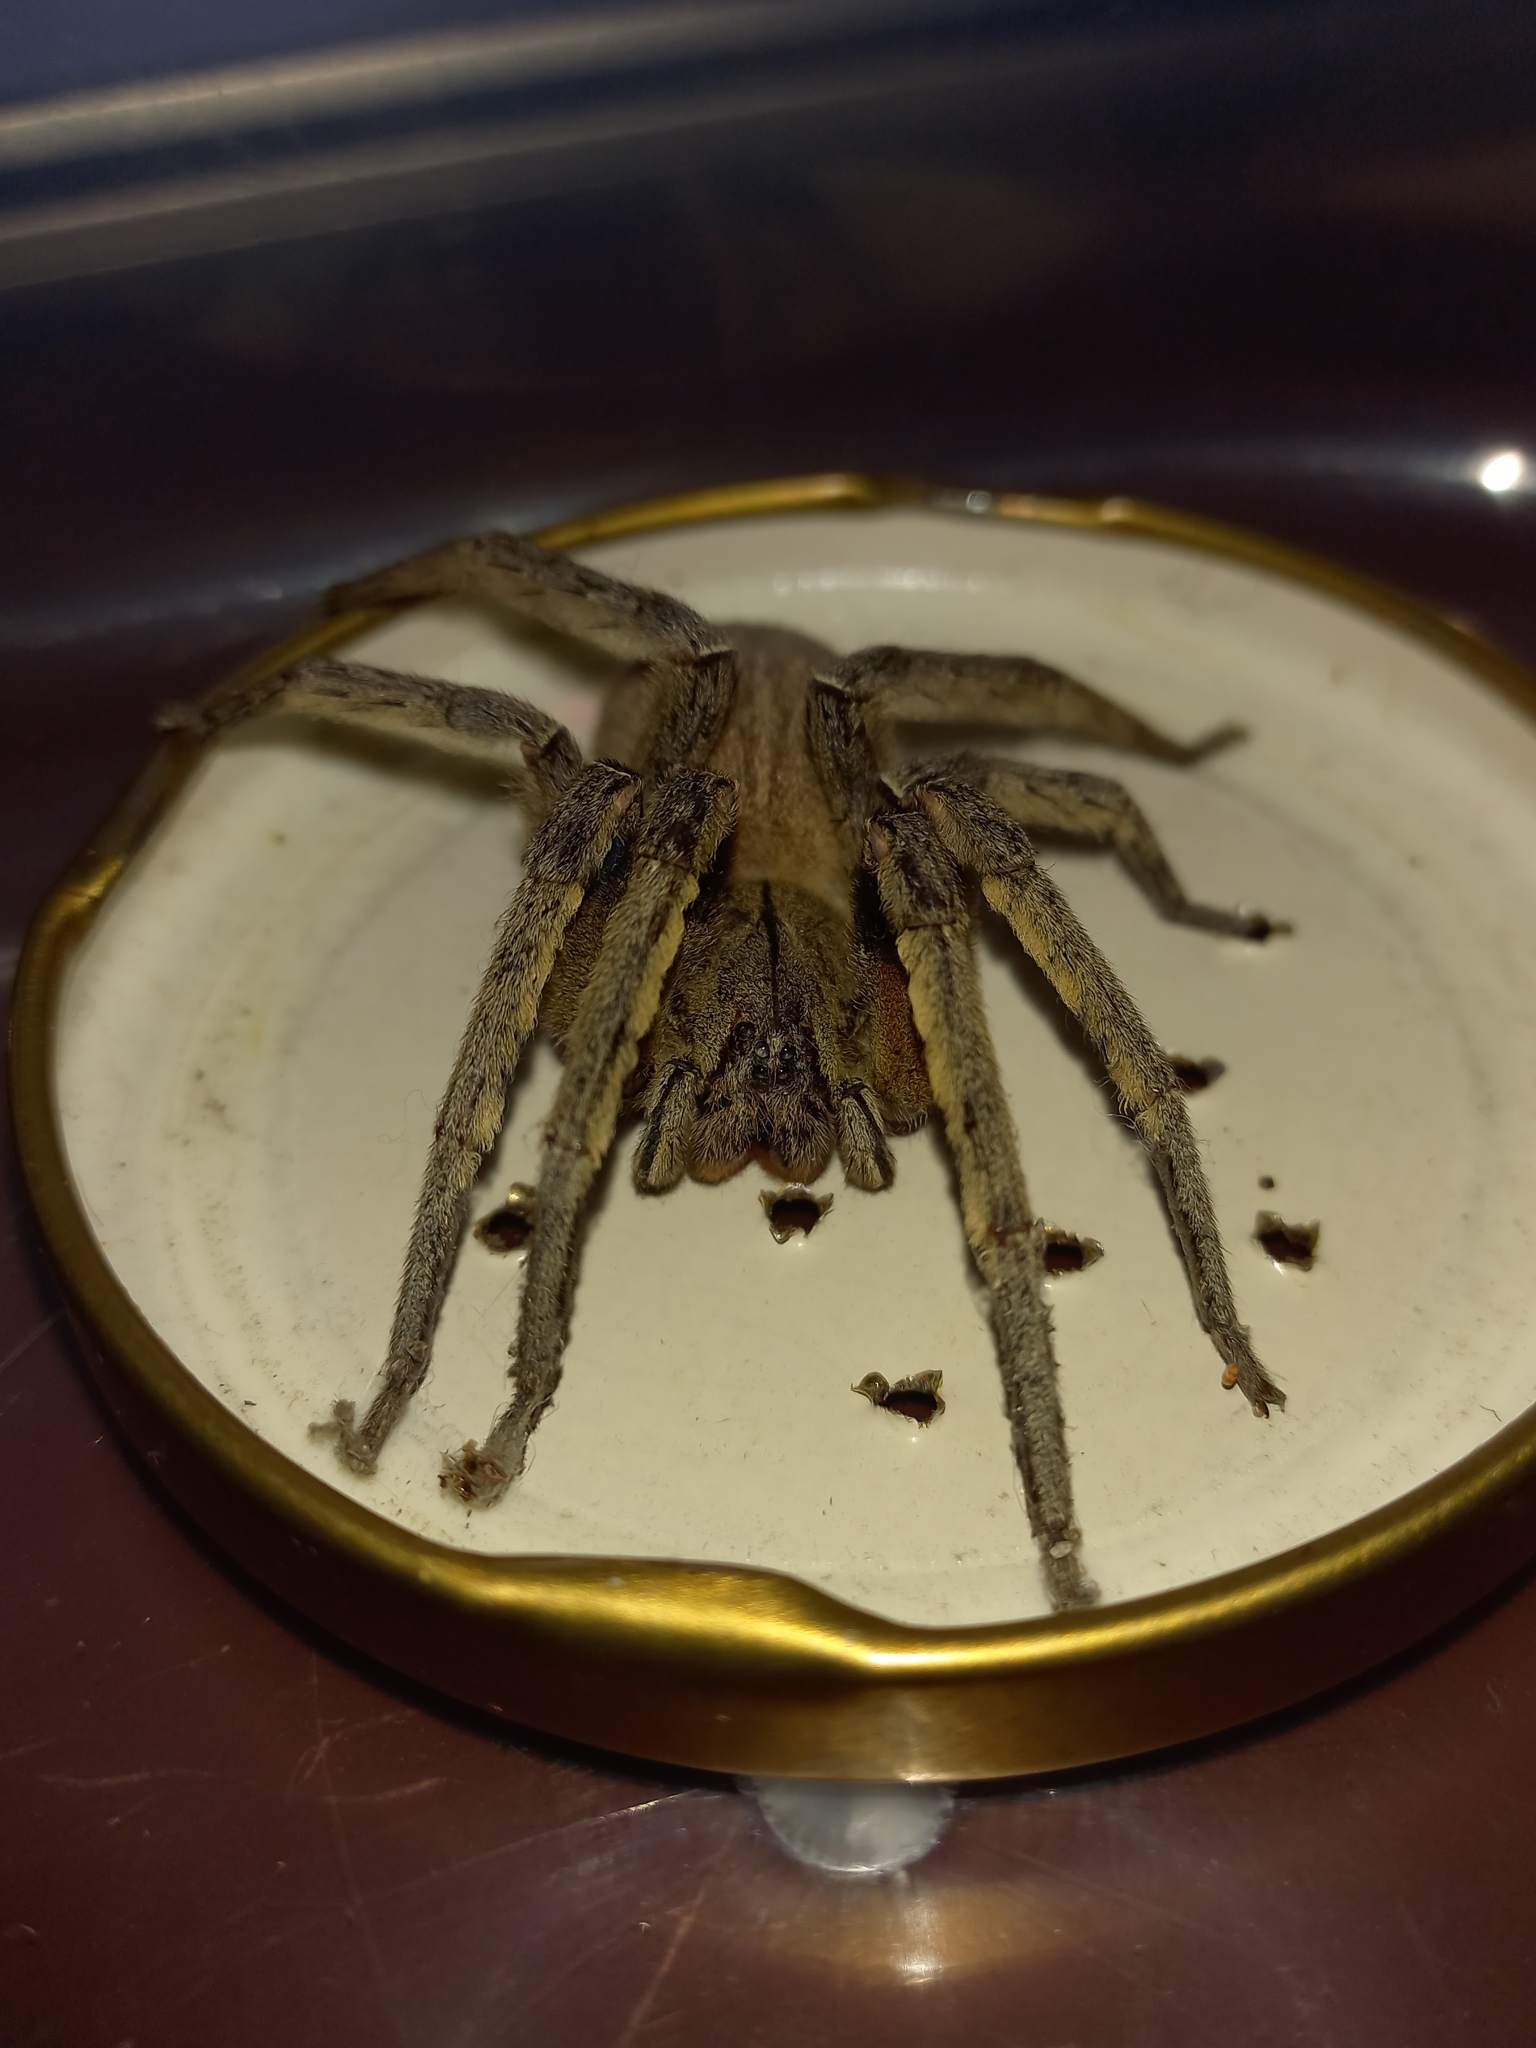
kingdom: Animalia
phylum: Arthropoda
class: Arachnida
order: Araneae
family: Ctenidae
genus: Phoneutria
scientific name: Phoneutria depilata
